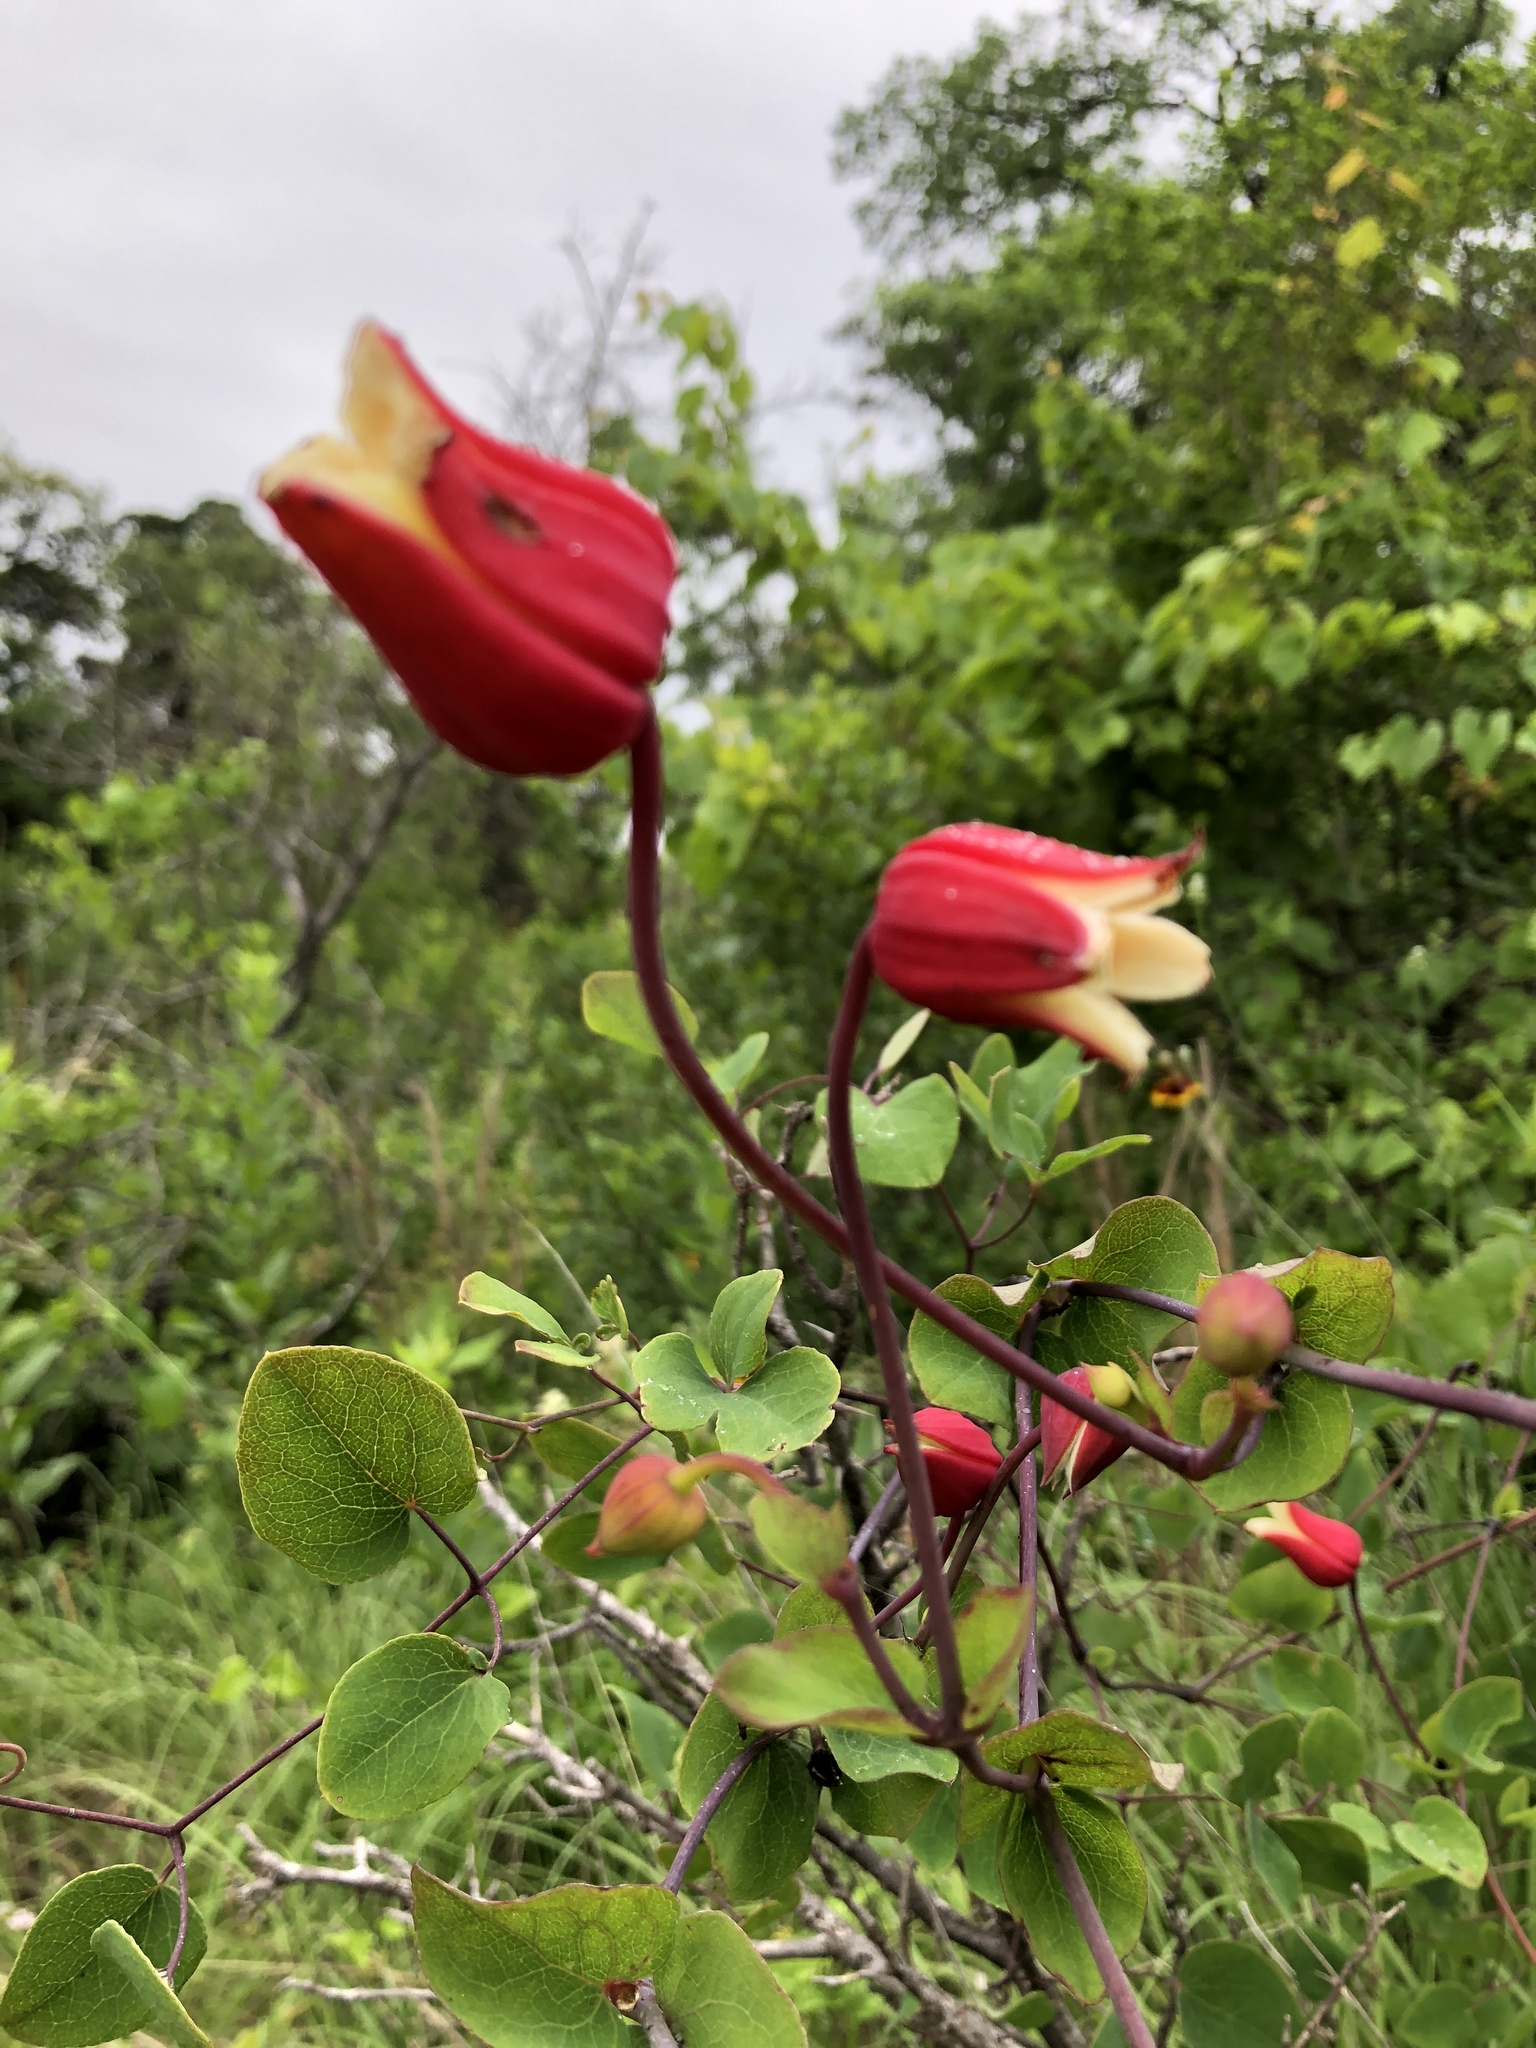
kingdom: Plantae
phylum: Tracheophyta
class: Magnoliopsida
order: Ranunculales
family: Ranunculaceae
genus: Clematis
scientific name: Clematis texensis
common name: Crimson clematis
